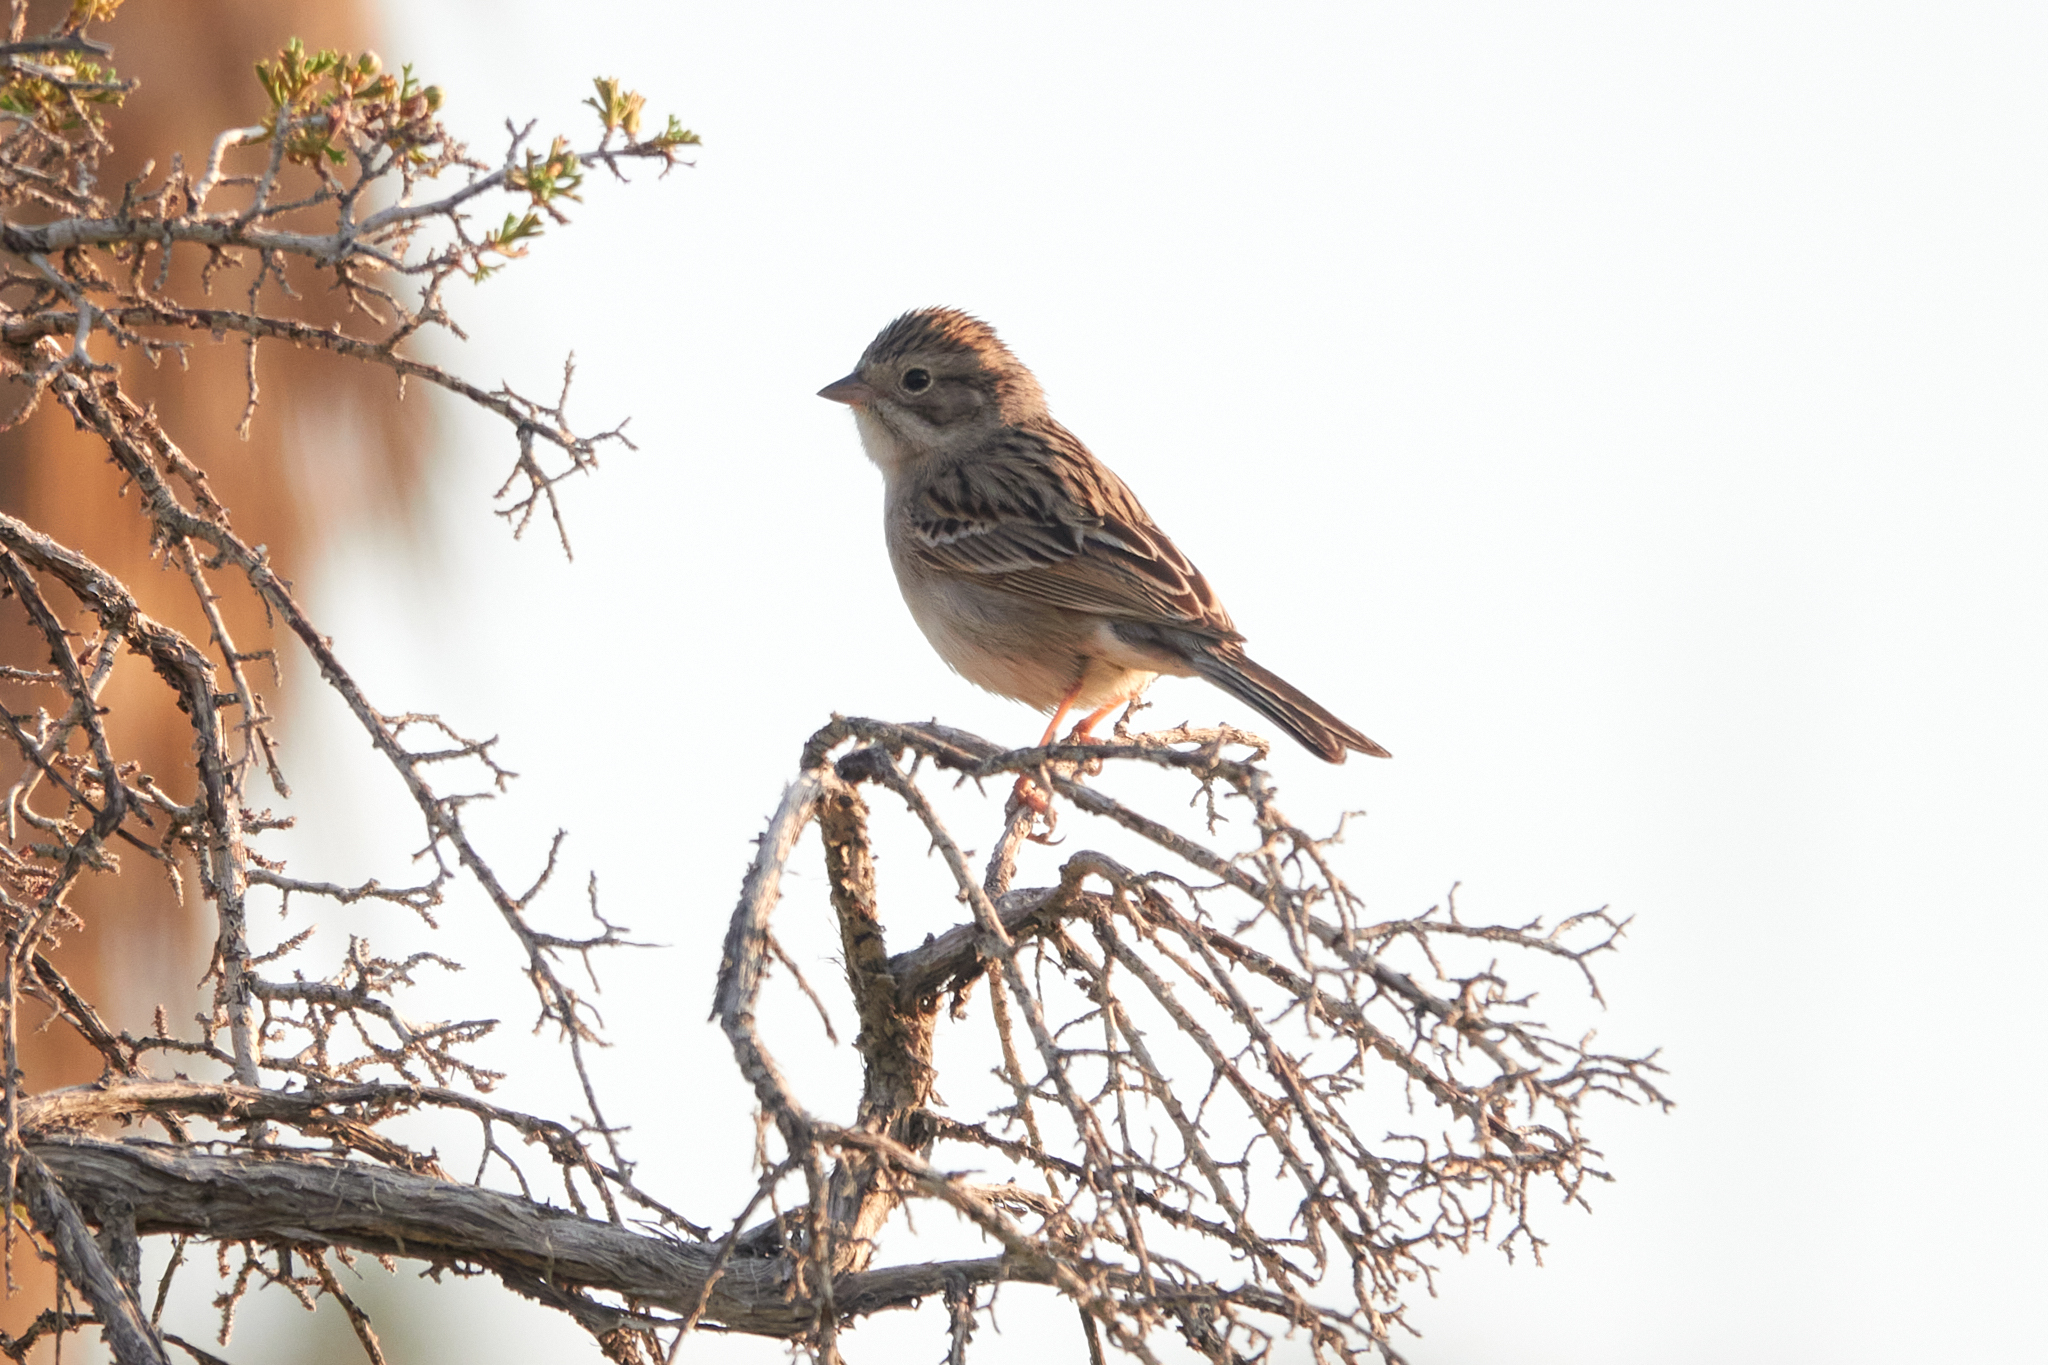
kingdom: Animalia
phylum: Chordata
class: Aves
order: Passeriformes
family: Passerellidae
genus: Spizella
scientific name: Spizella breweri
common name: Brewer's sparrow
